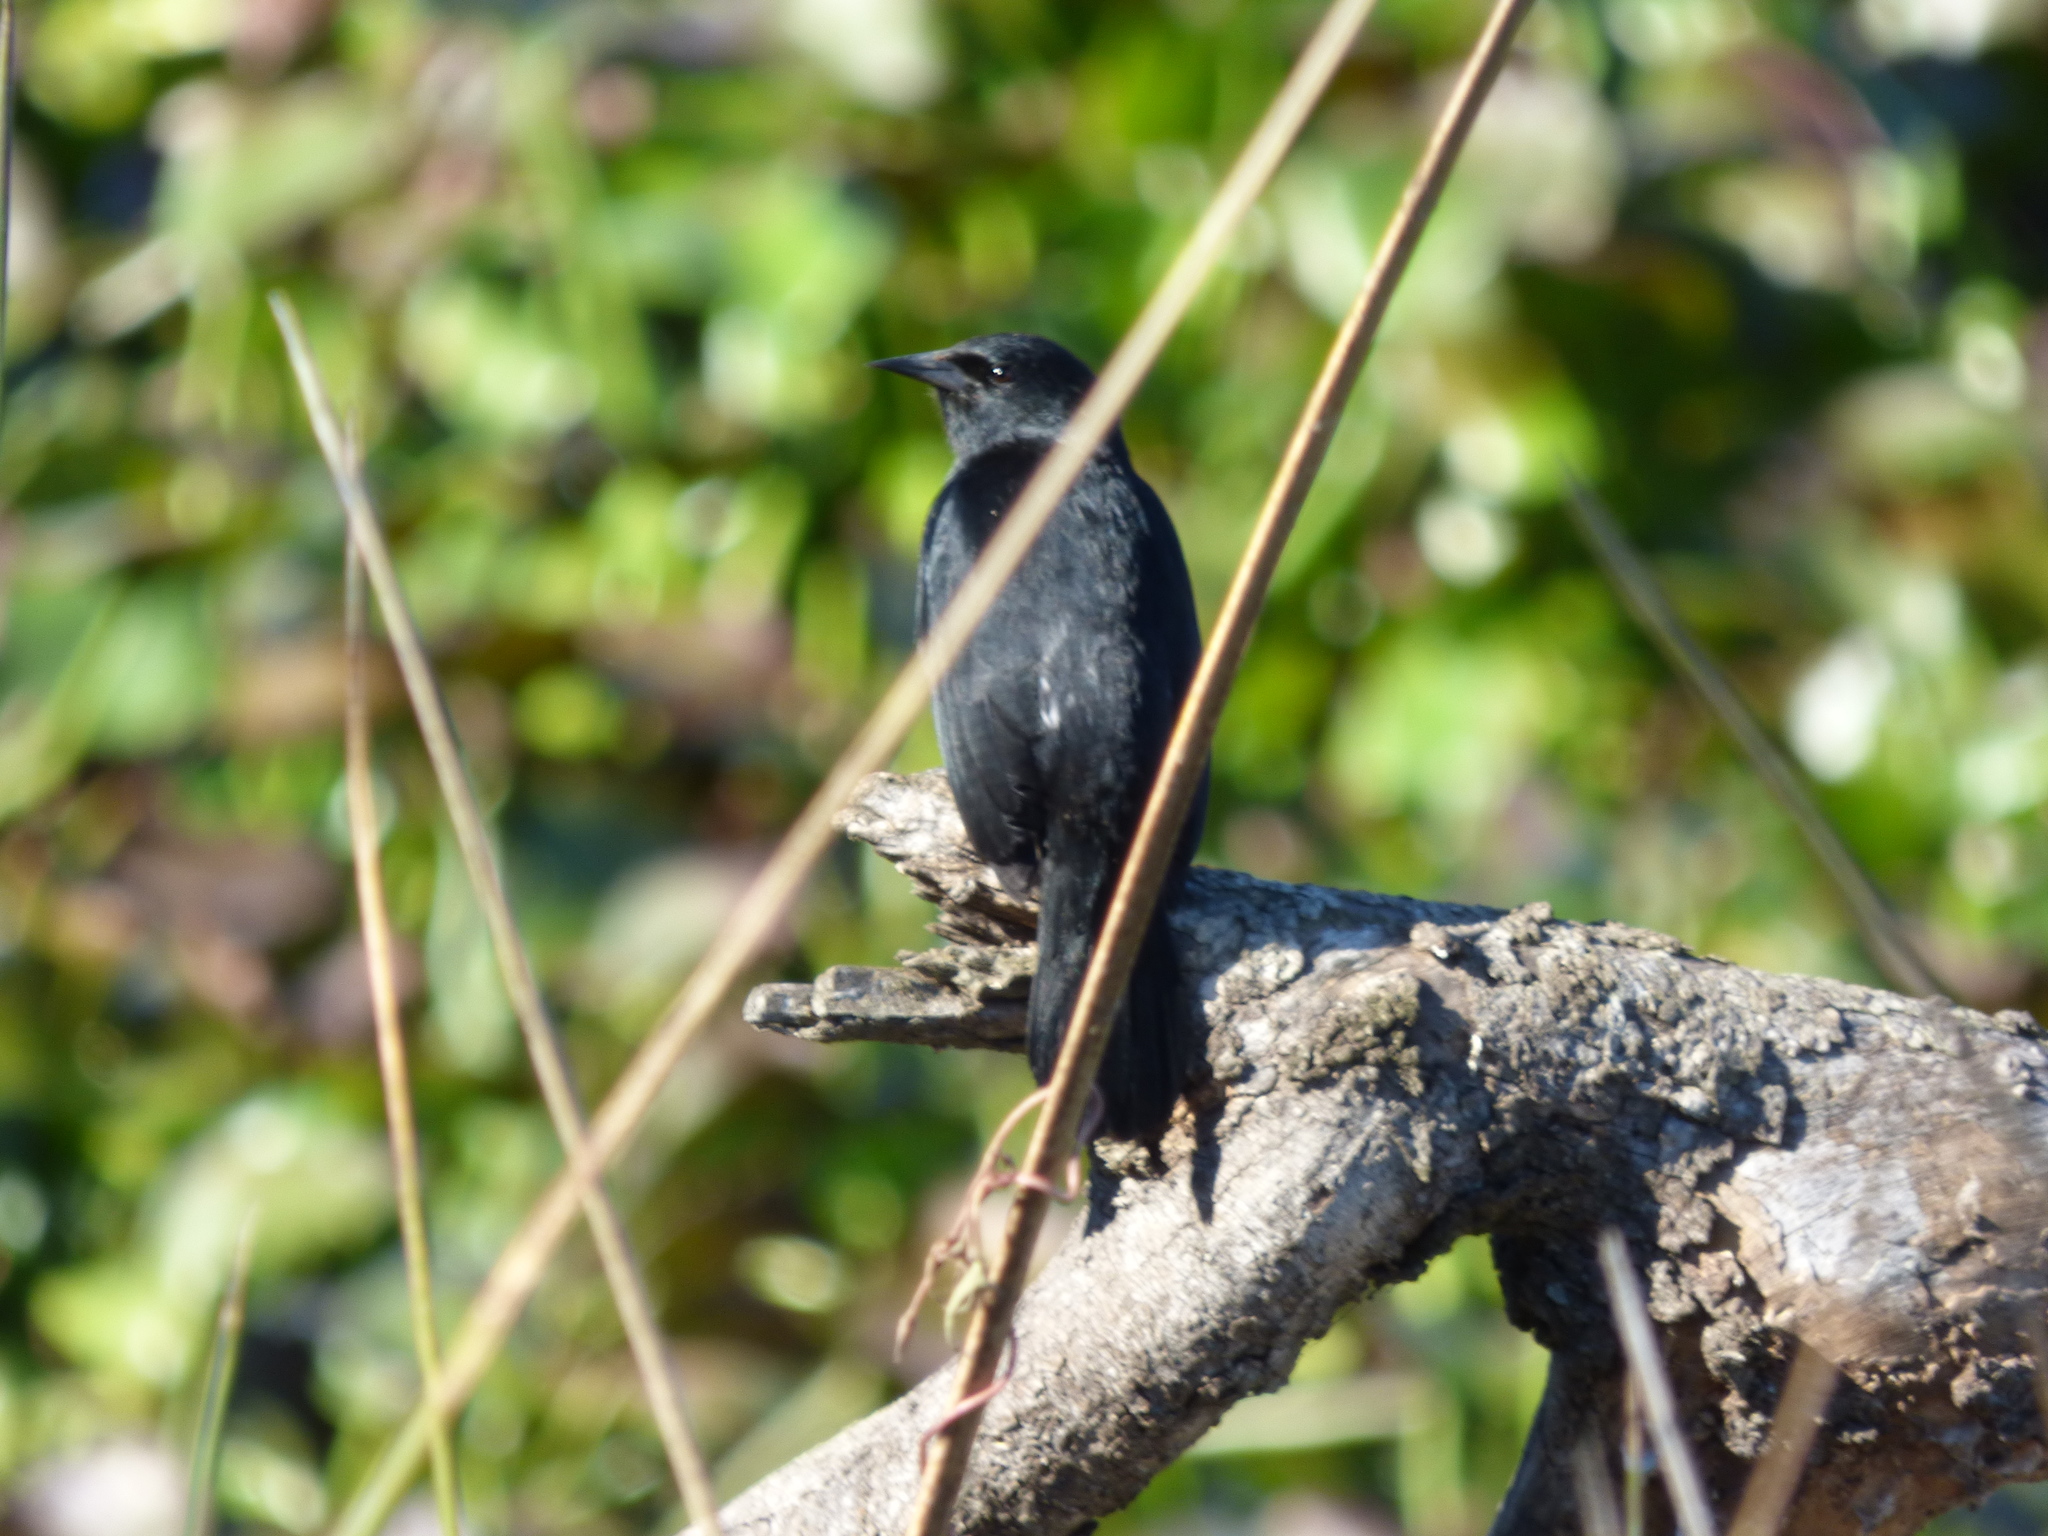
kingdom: Animalia
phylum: Chordata
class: Aves
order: Passeriformes
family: Icteridae
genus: Agelasticus
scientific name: Agelasticus cyanopus
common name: Unicolored blackbird
